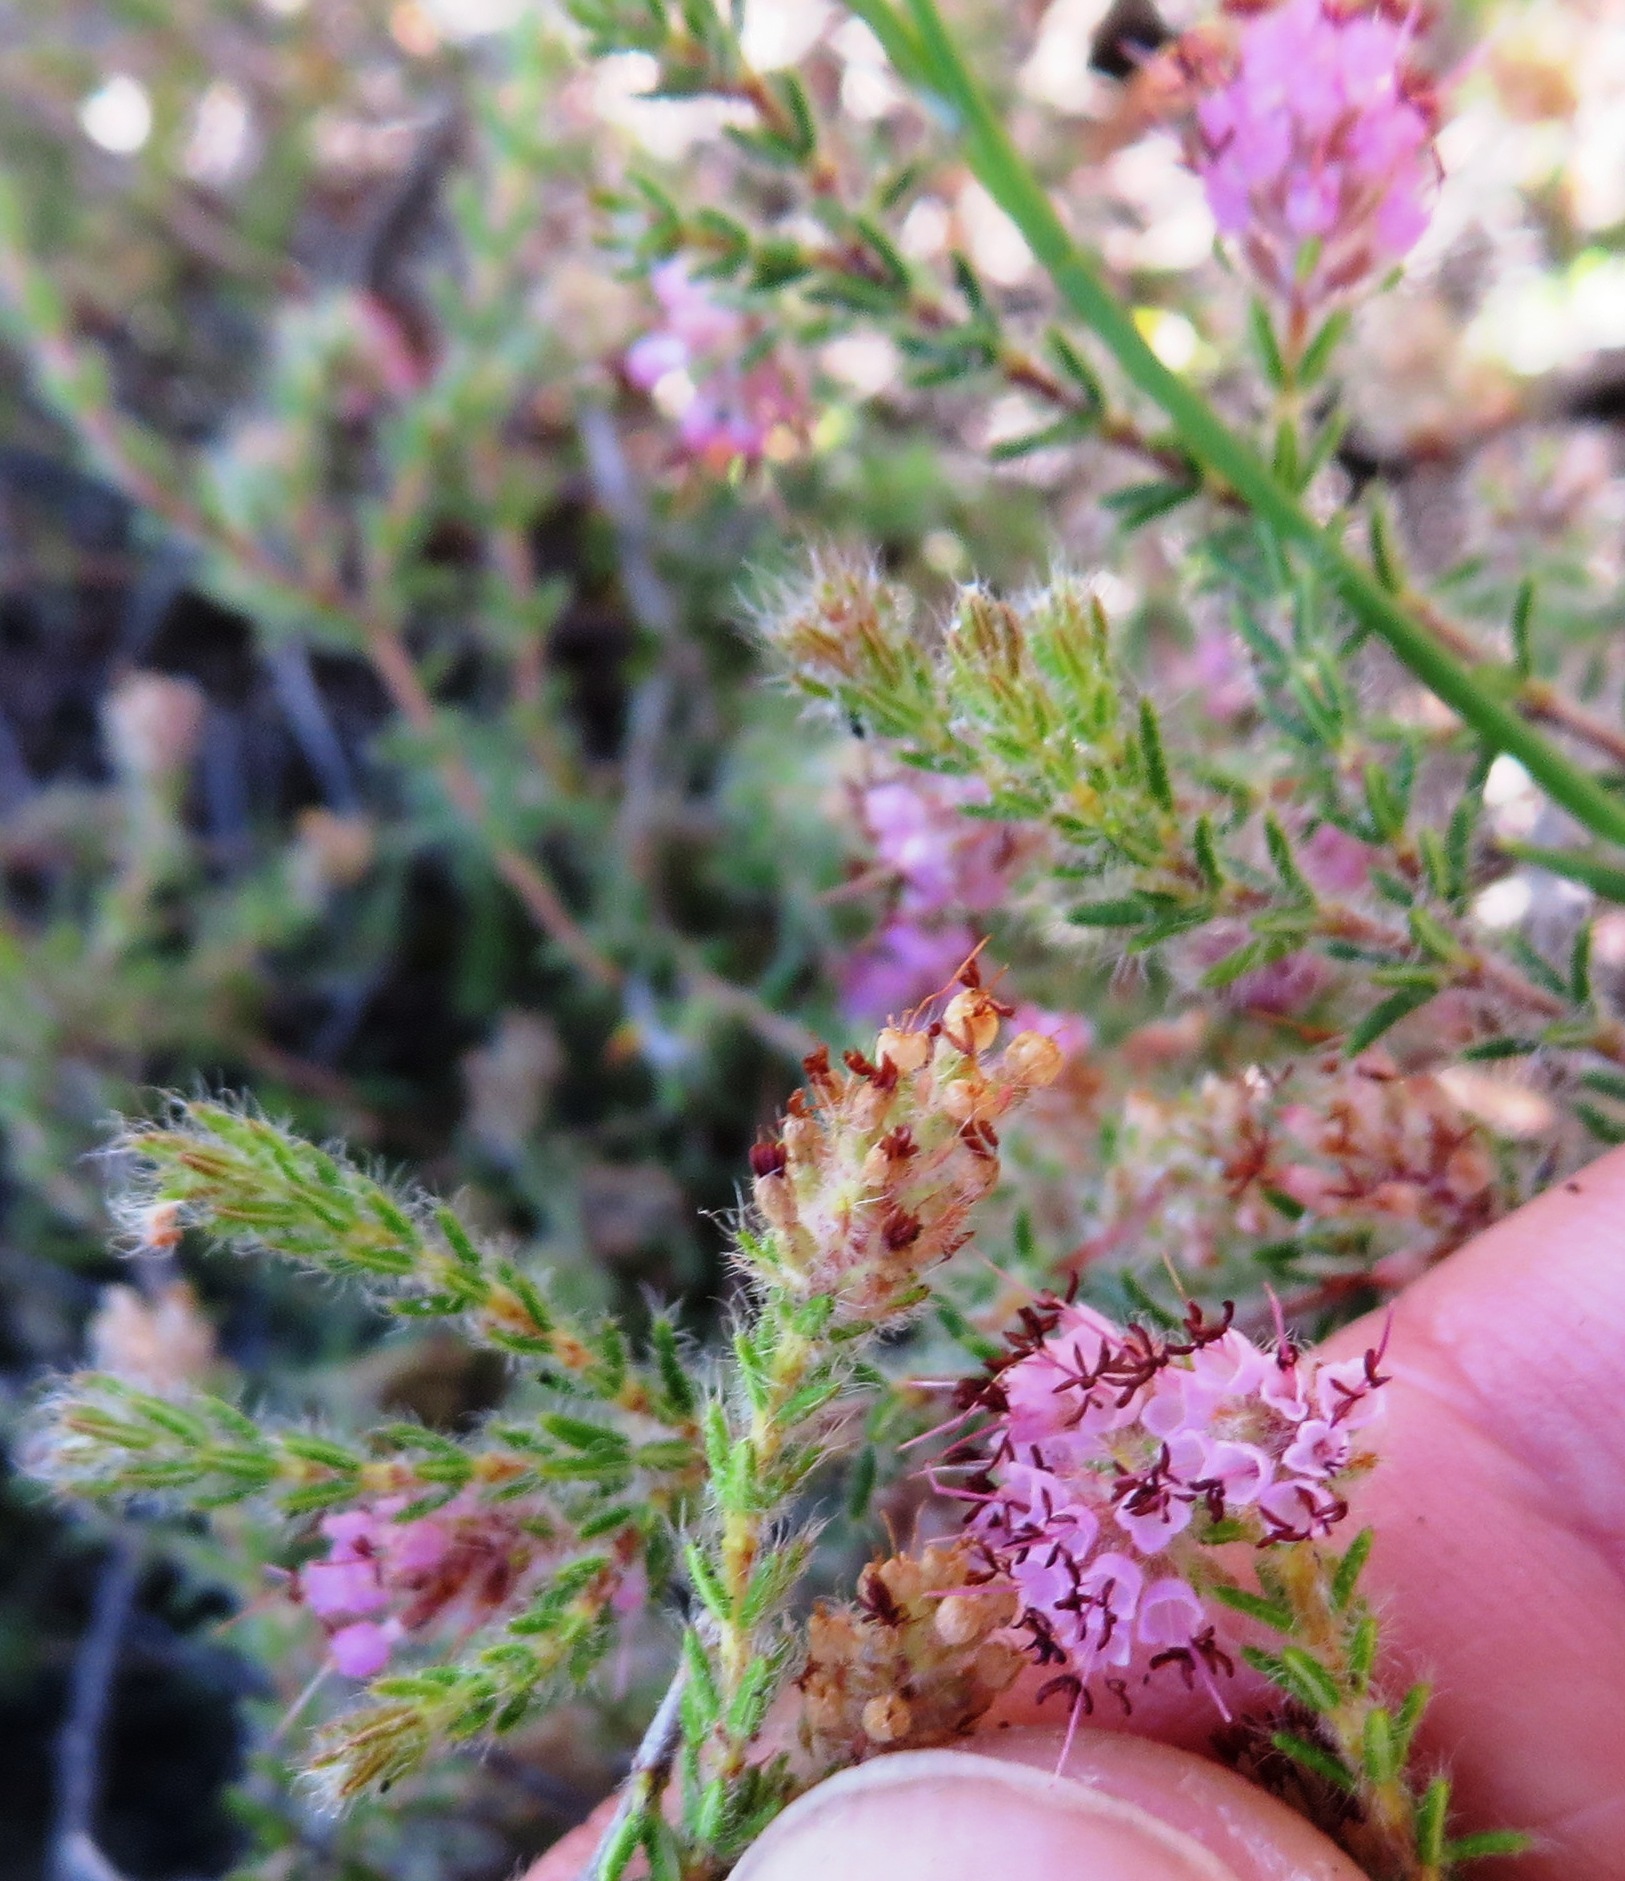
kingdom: Plantae
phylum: Tracheophyta
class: Magnoliopsida
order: Ericales
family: Ericaceae
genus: Erica
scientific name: Erica similis
